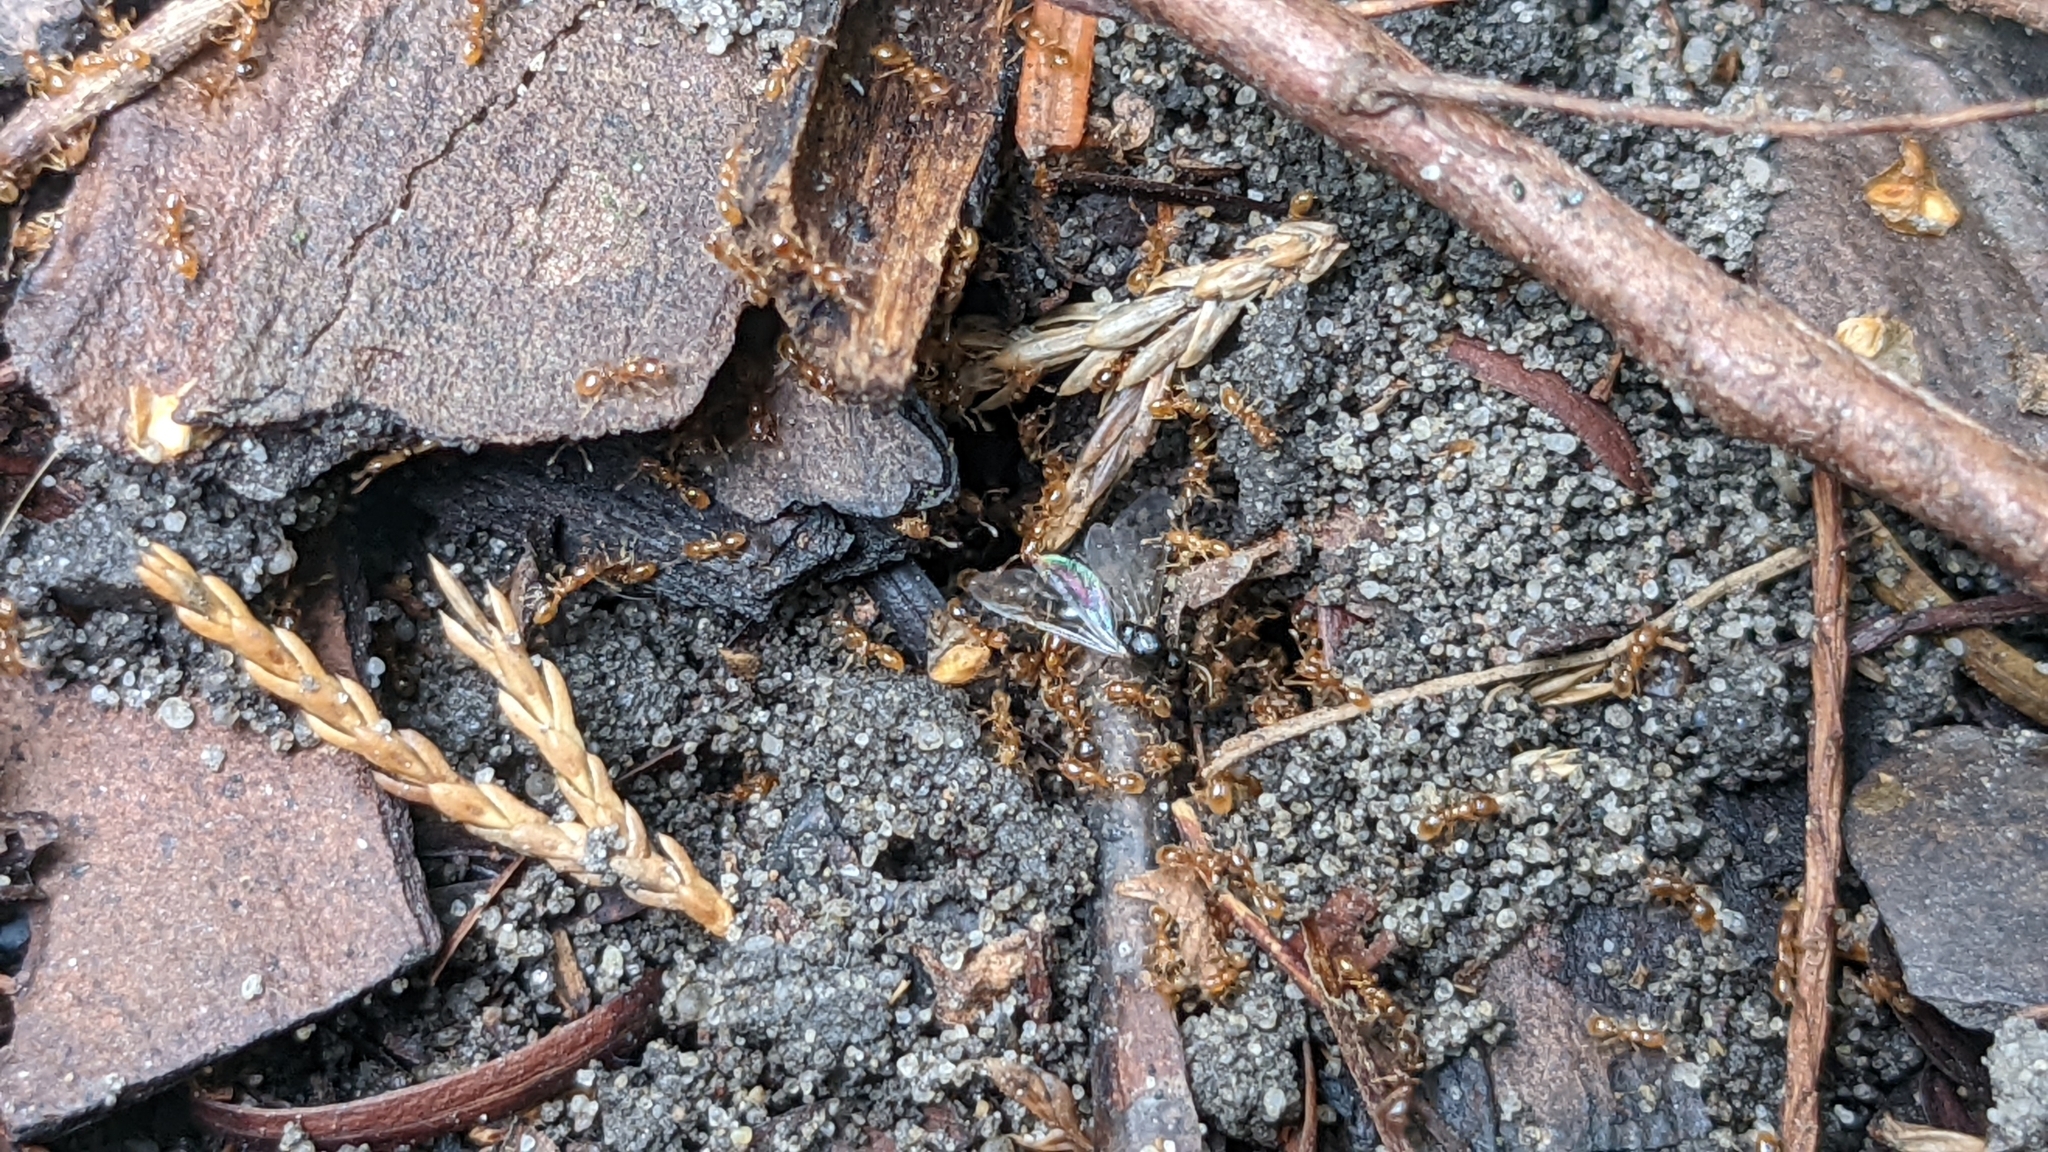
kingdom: Animalia
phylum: Arthropoda
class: Insecta
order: Hymenoptera
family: Formicidae
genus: Solenopsis
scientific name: Solenopsis fugax
